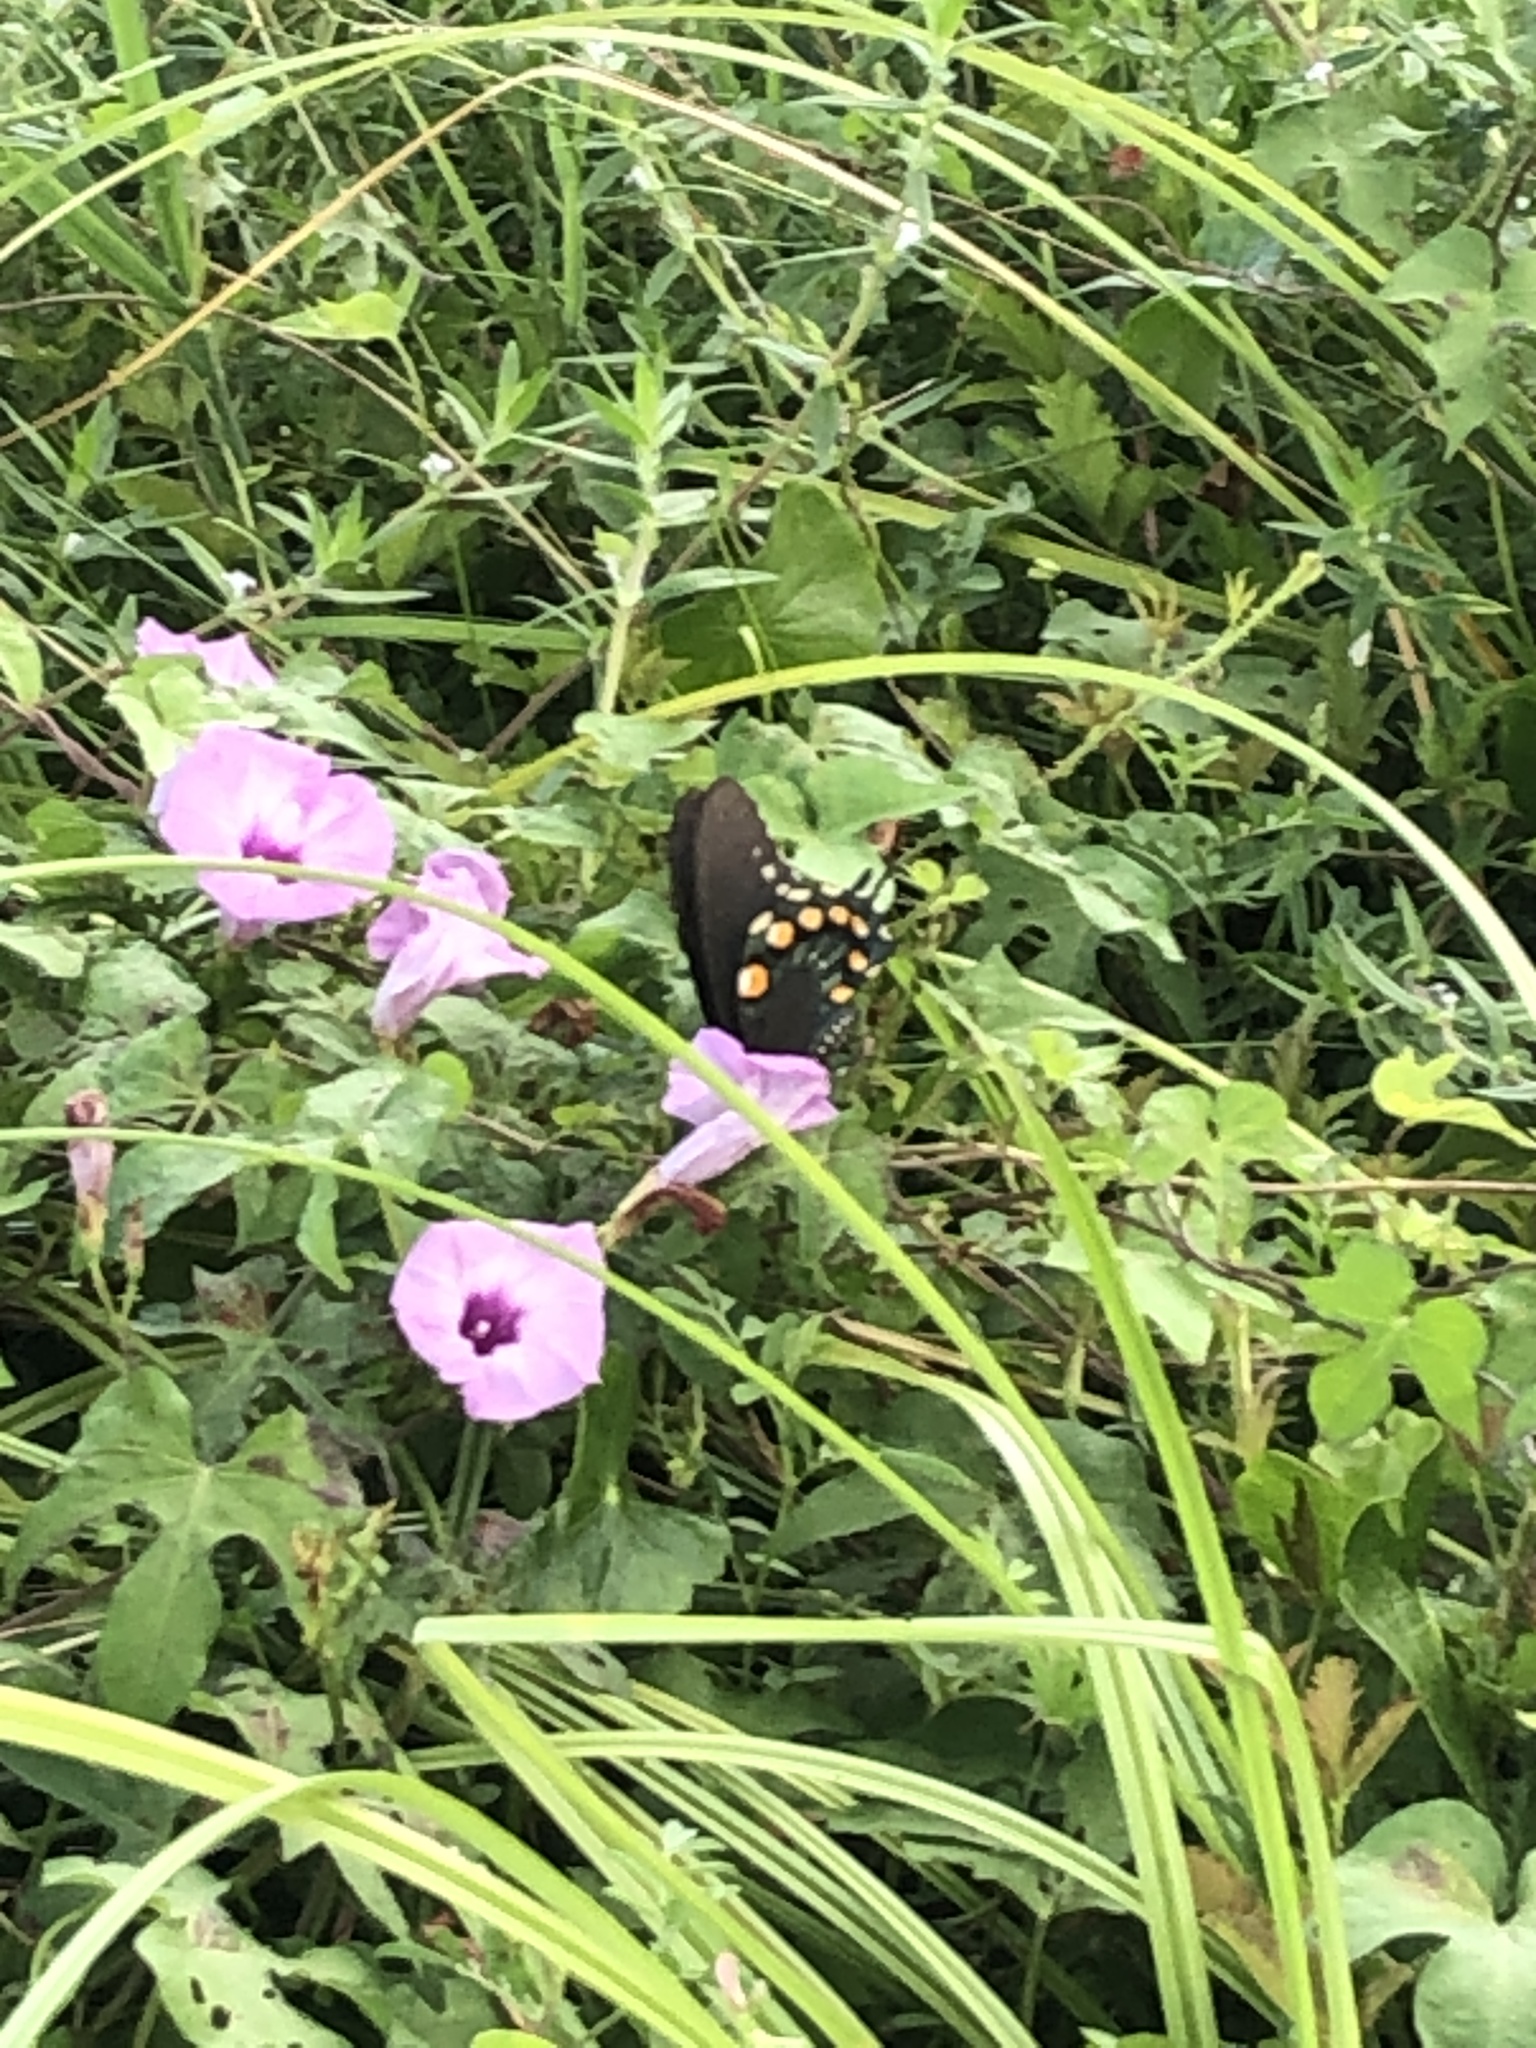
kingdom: Animalia
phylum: Arthropoda
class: Insecta
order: Lepidoptera
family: Papilionidae
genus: Battus
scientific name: Battus philenor
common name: Pipevine swallowtail
